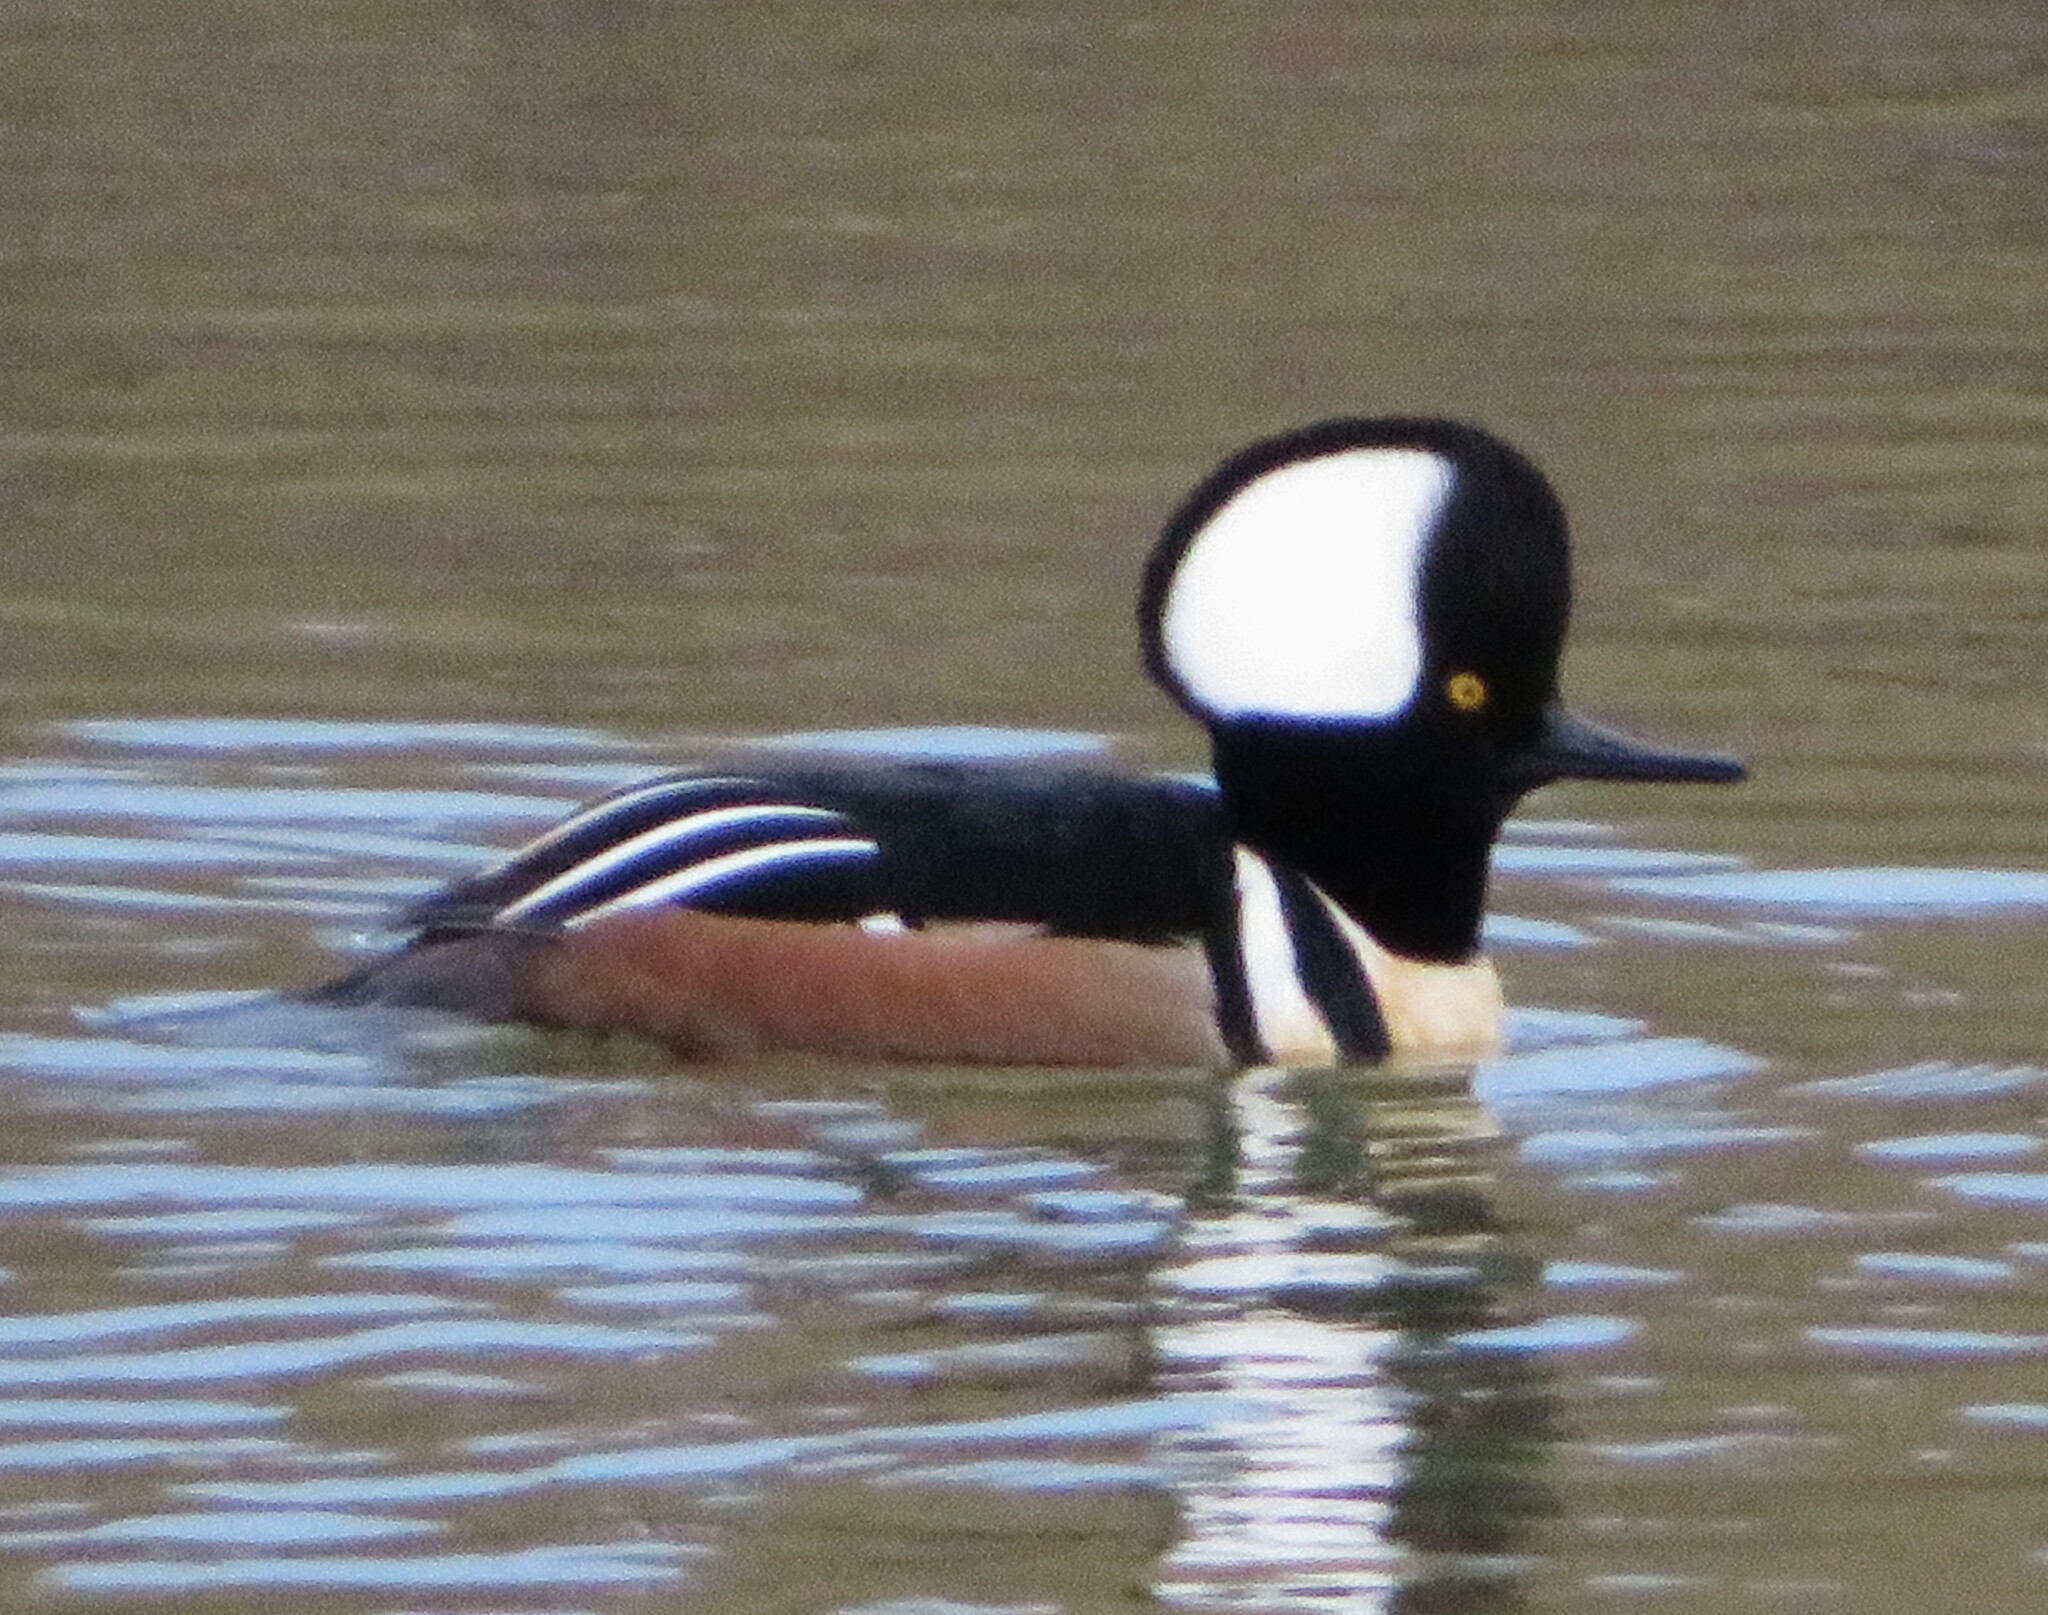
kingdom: Animalia
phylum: Chordata
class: Aves
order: Anseriformes
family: Anatidae
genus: Lophodytes
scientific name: Lophodytes cucullatus
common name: Hooded merganser
